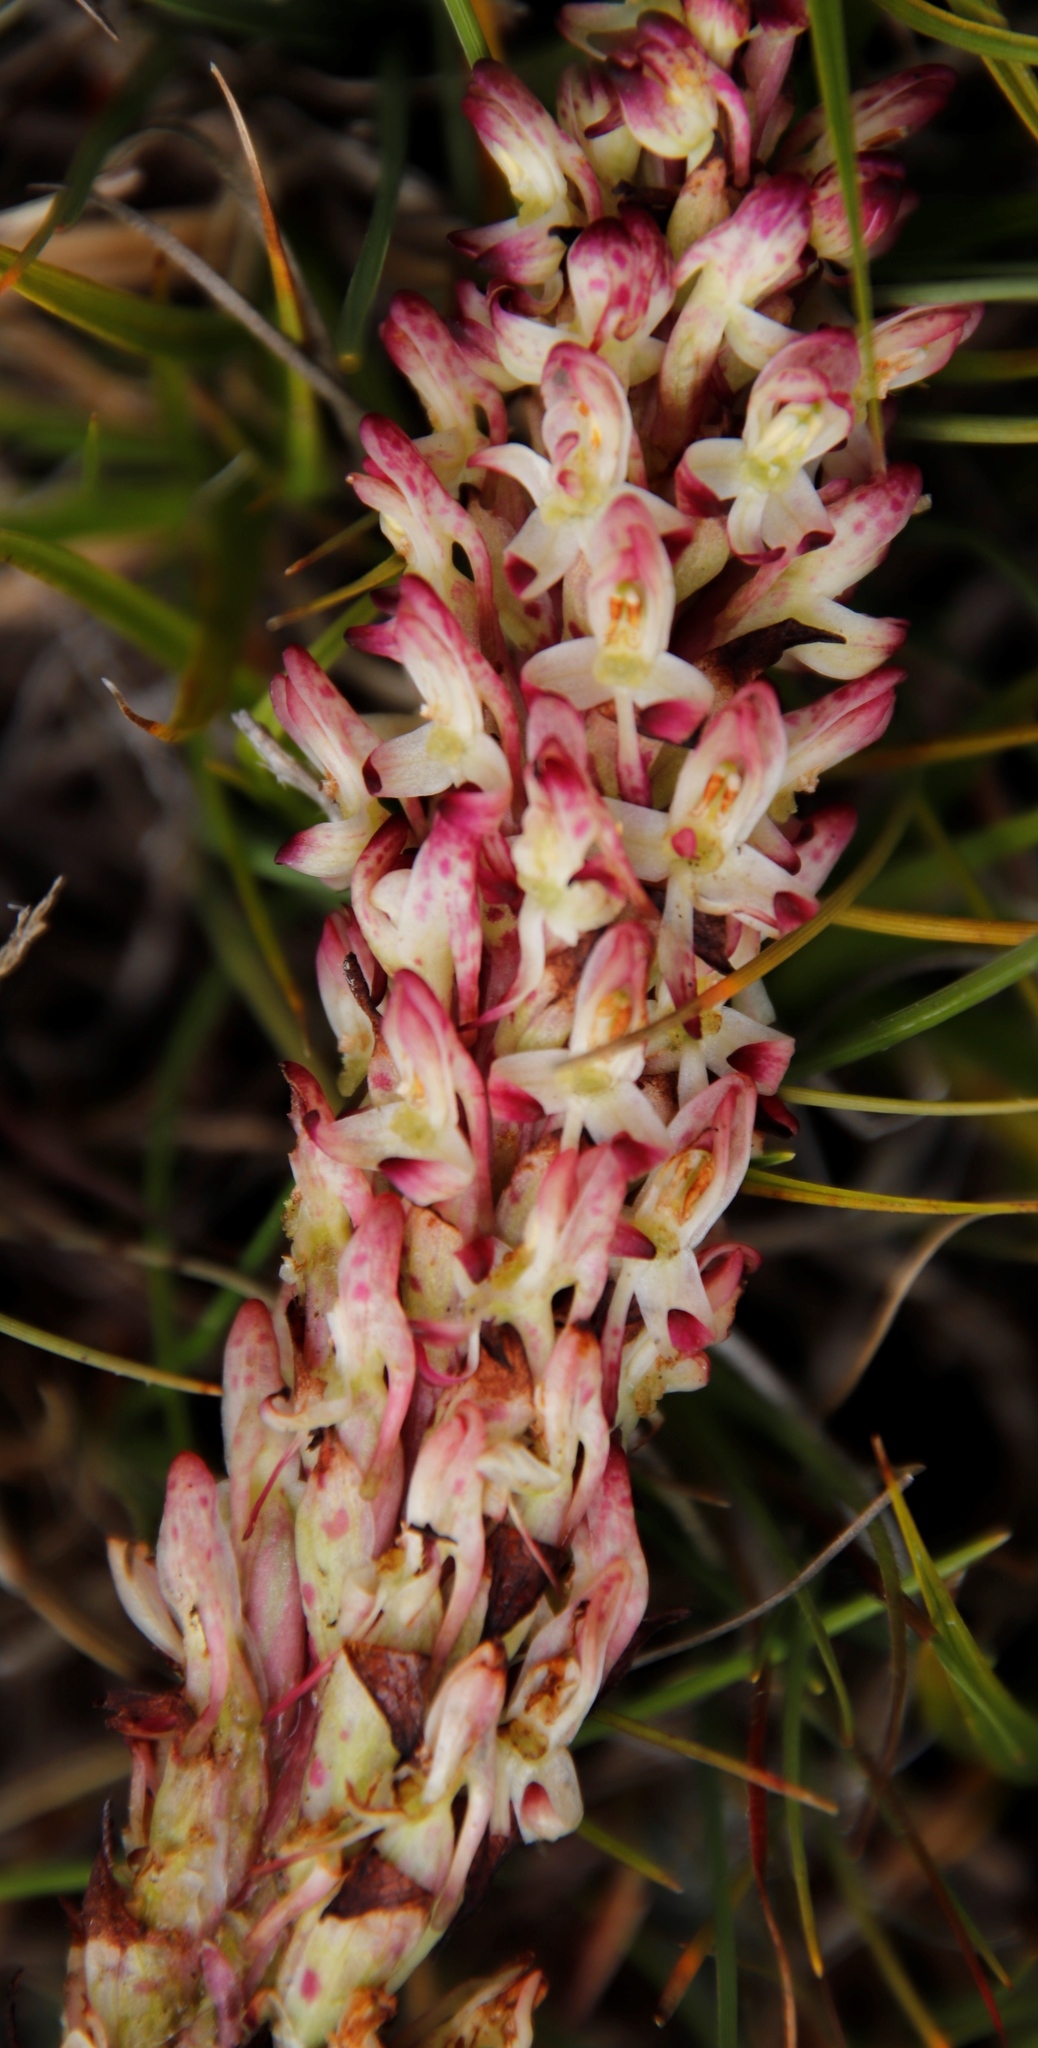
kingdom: Plantae
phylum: Tracheophyta
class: Liliopsida
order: Asparagales
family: Orchidaceae
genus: Disa
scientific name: Disa fragrans
